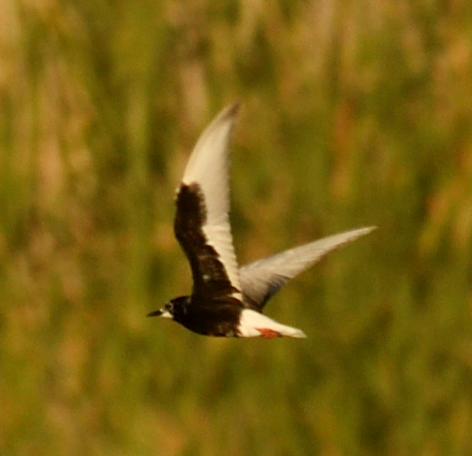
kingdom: Animalia
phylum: Chordata
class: Aves
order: Charadriiformes
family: Laridae
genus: Chlidonias
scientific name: Chlidonias leucopterus
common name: White-winged tern
